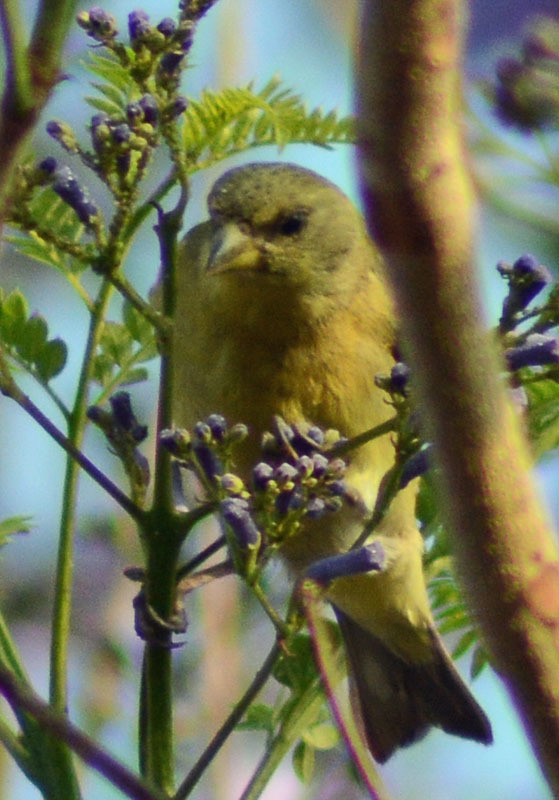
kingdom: Animalia
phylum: Chordata
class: Aves
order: Passeriformes
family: Fringillidae
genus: Spinus
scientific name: Spinus psaltria
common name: Lesser goldfinch
